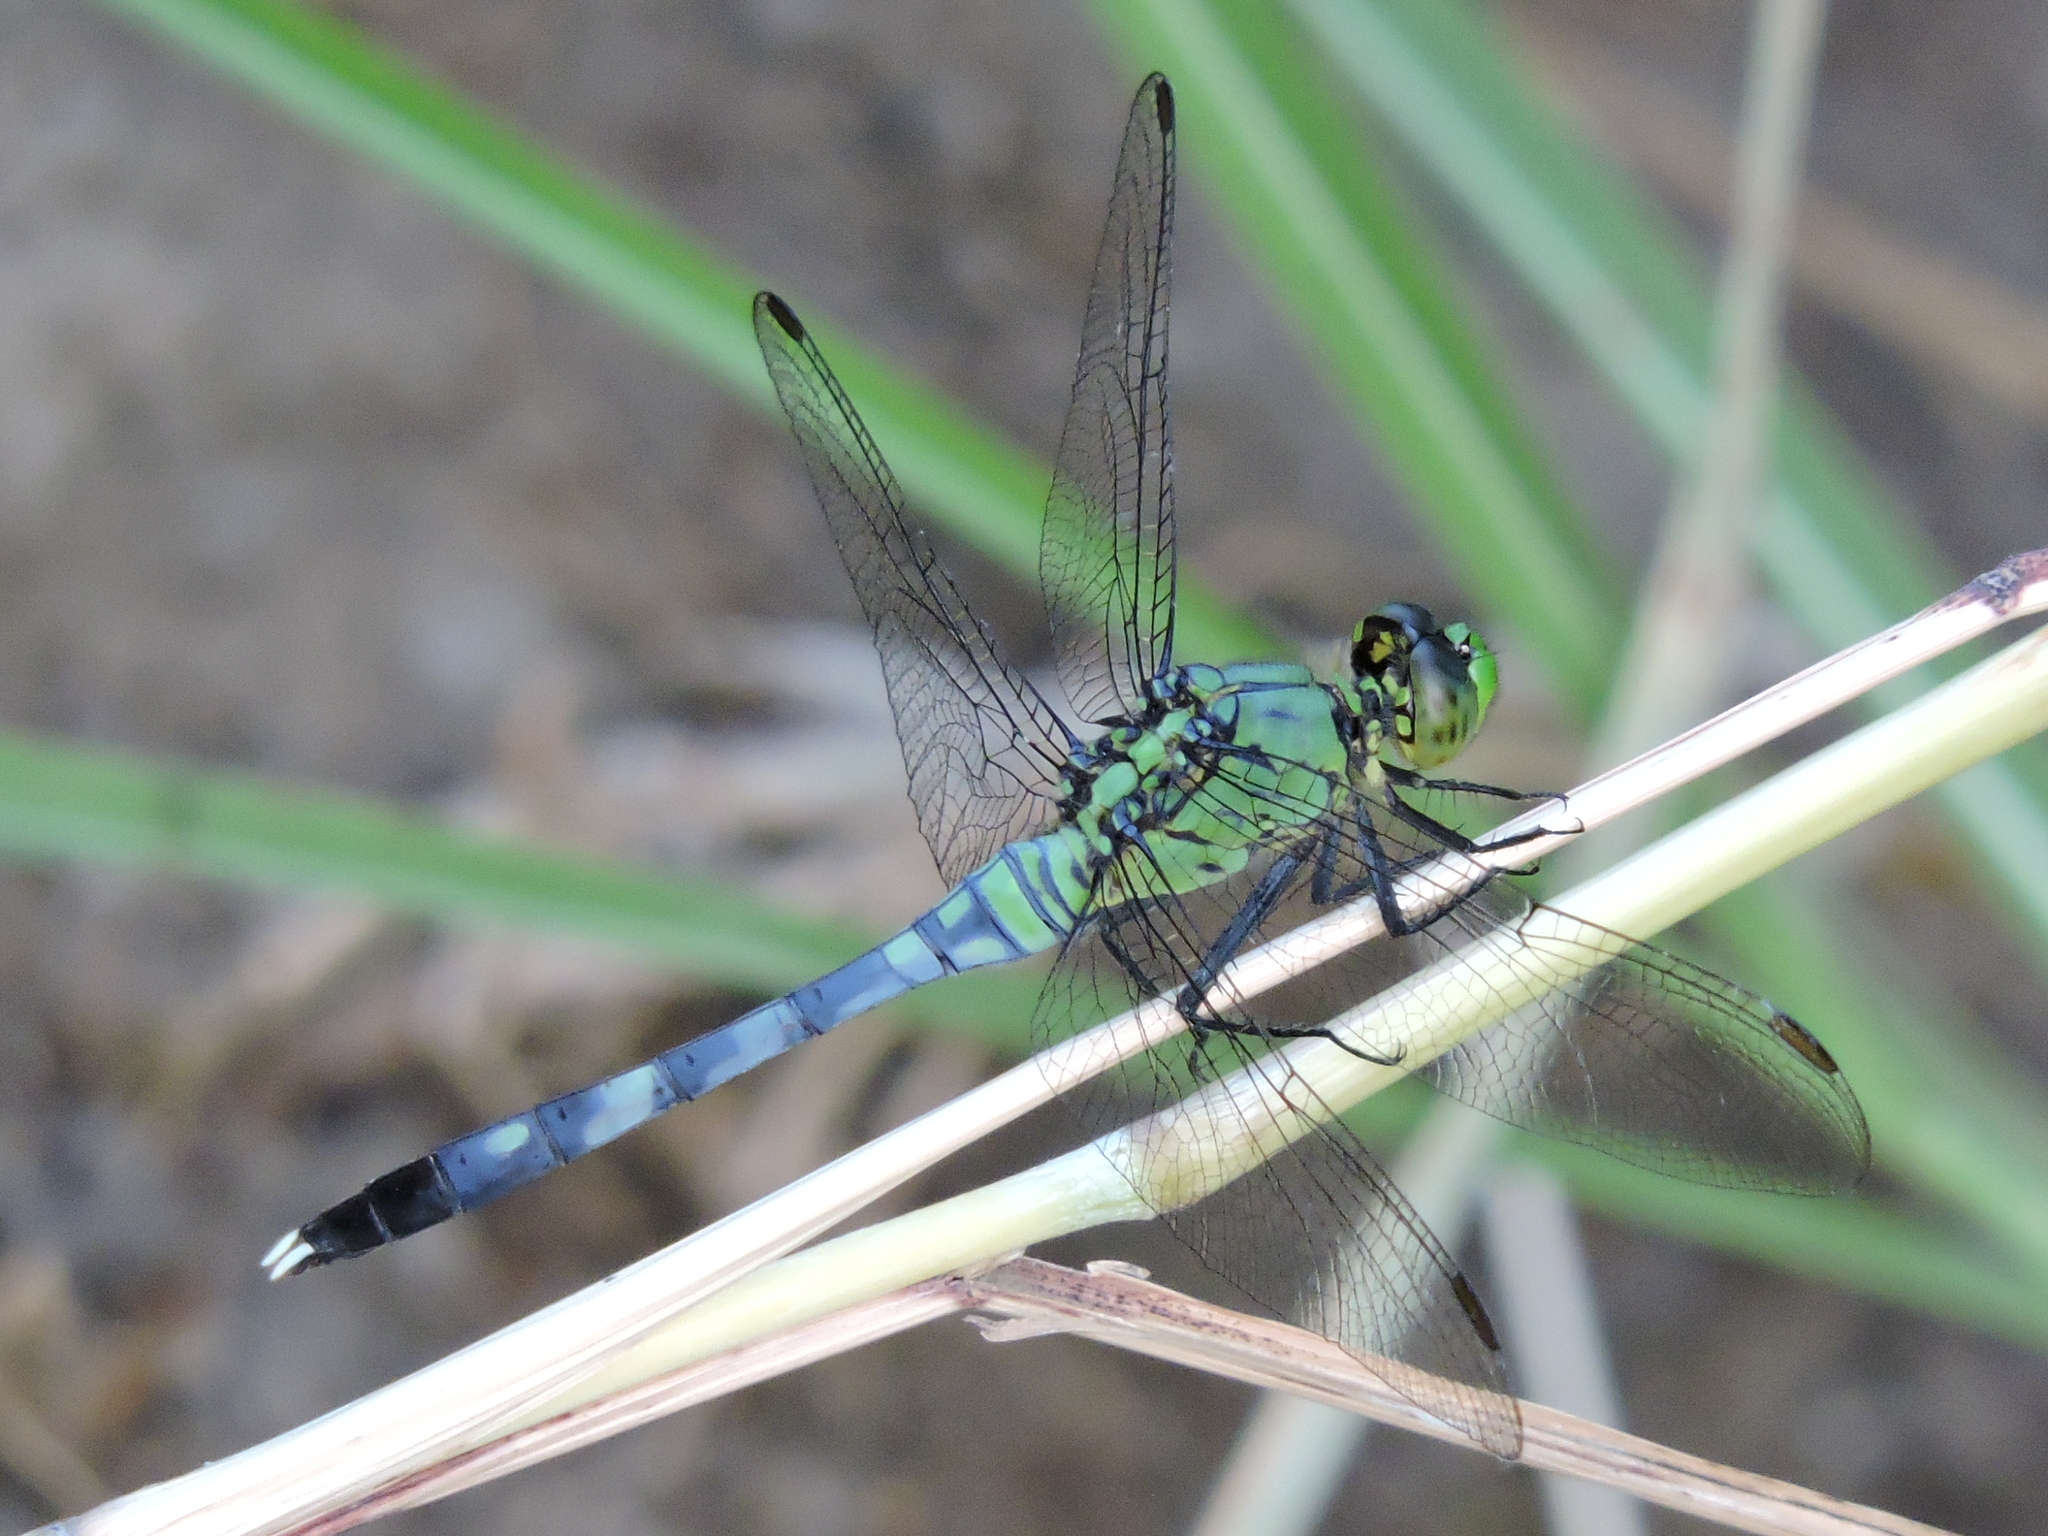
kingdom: Animalia
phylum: Arthropoda
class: Insecta
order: Odonata
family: Libellulidae
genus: Erythemis
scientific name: Erythemis simplicicollis
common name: Eastern pondhawk
